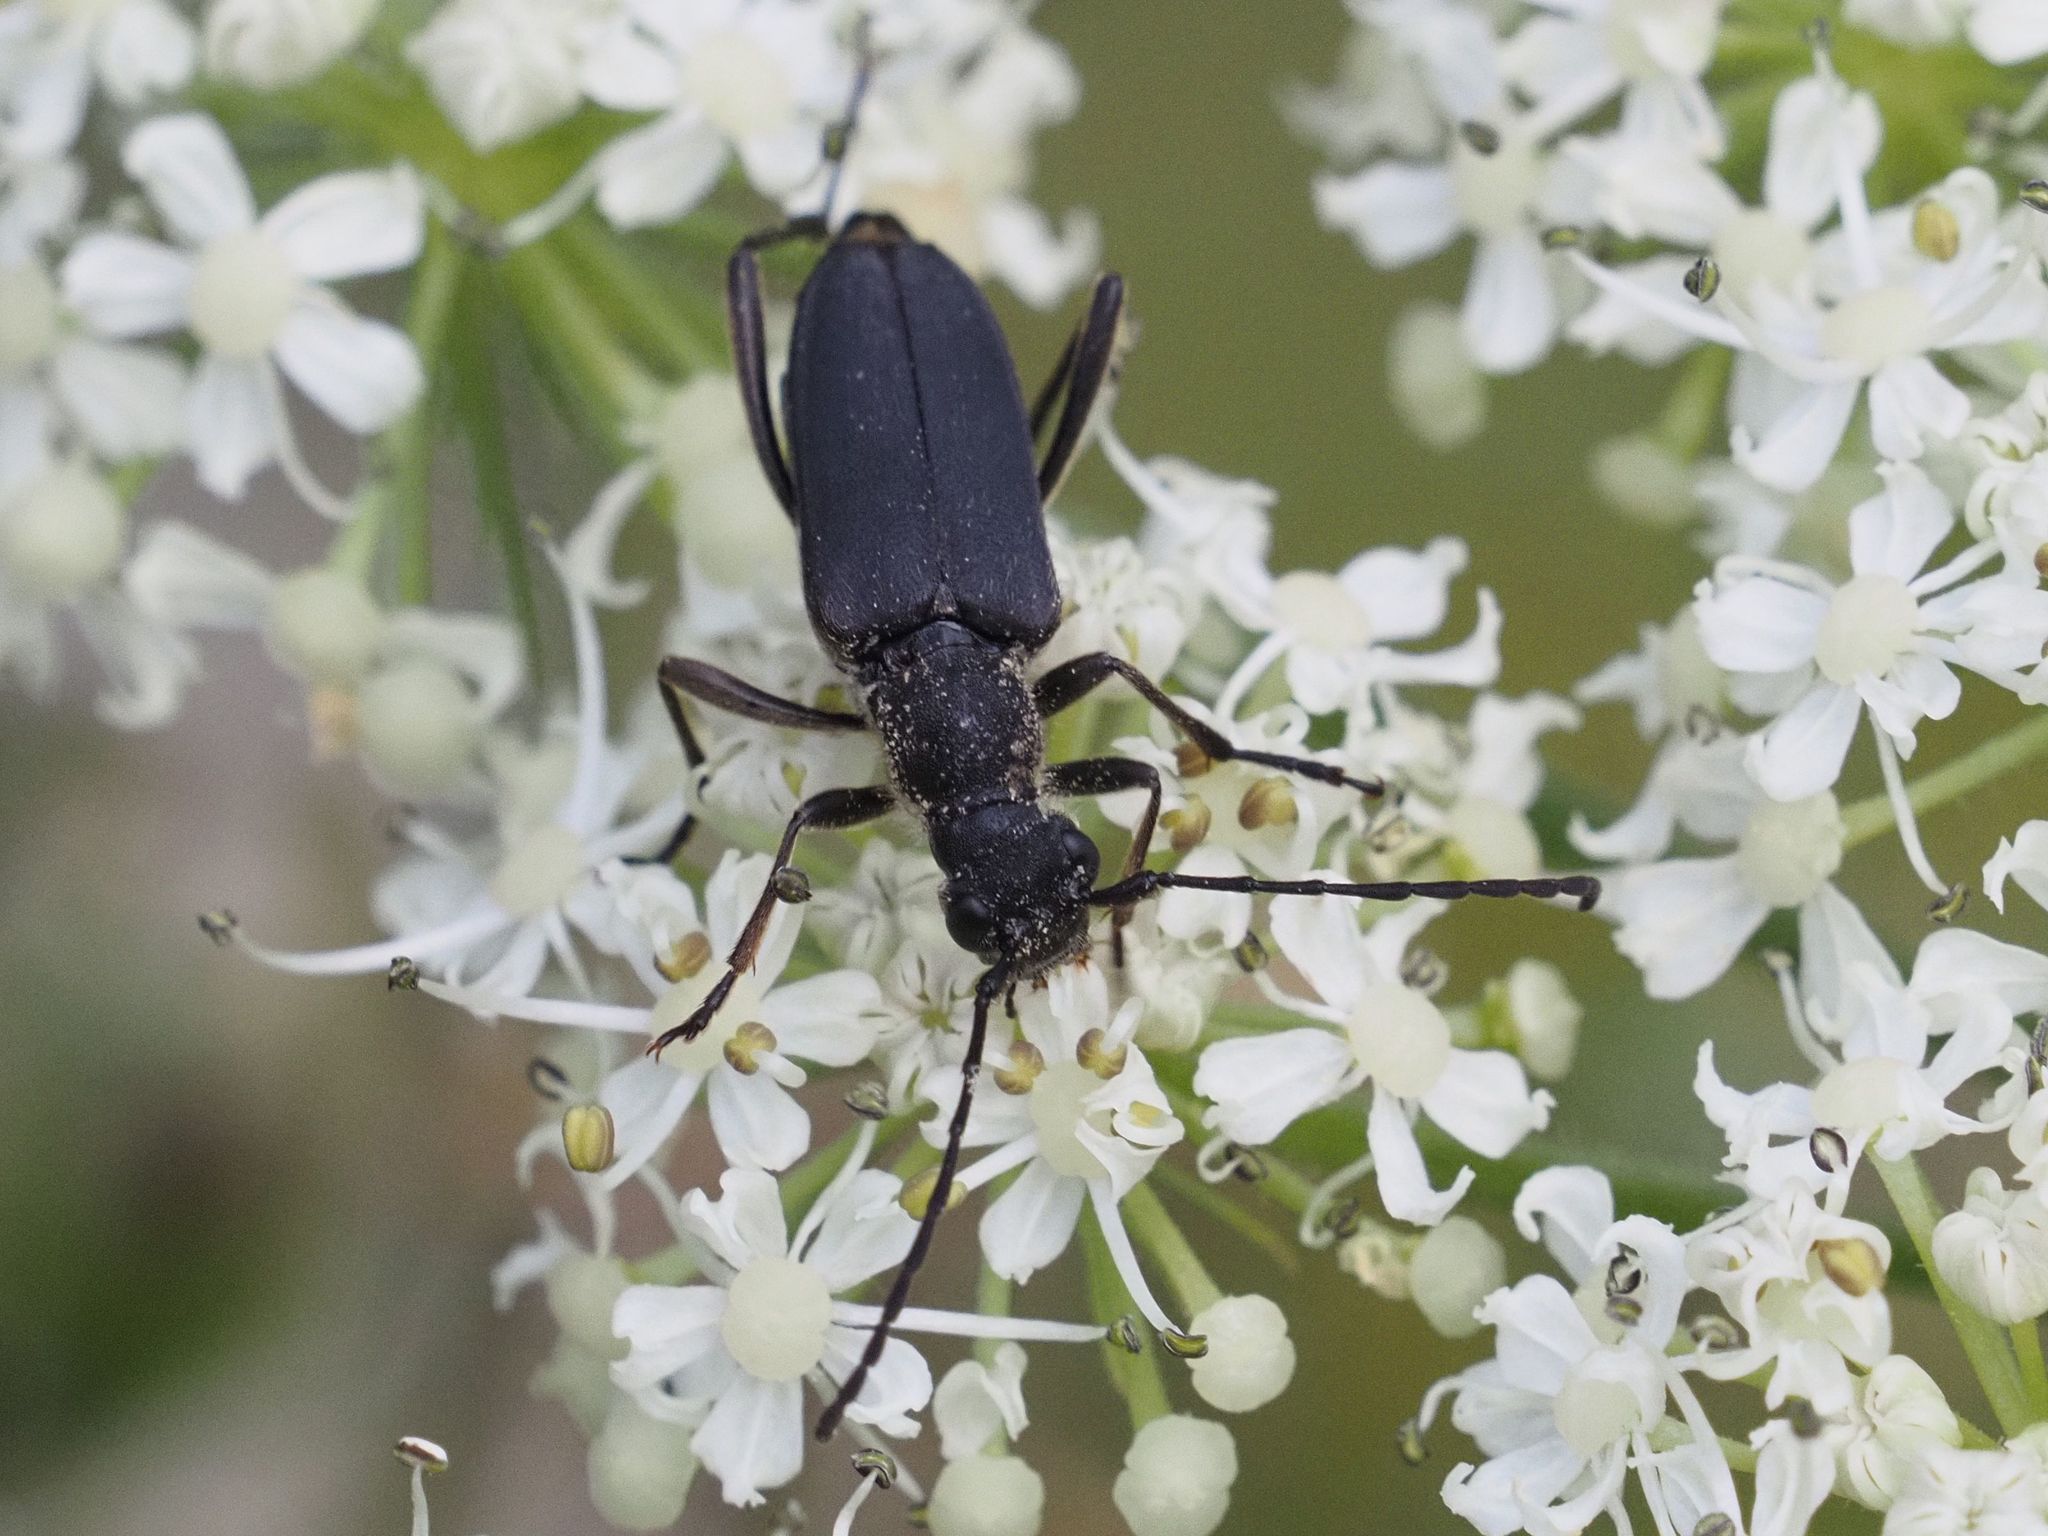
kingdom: Animalia
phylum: Arthropoda
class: Insecta
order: Coleoptera
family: Cerambycidae
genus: Anastrangalia
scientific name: Anastrangalia dubia
